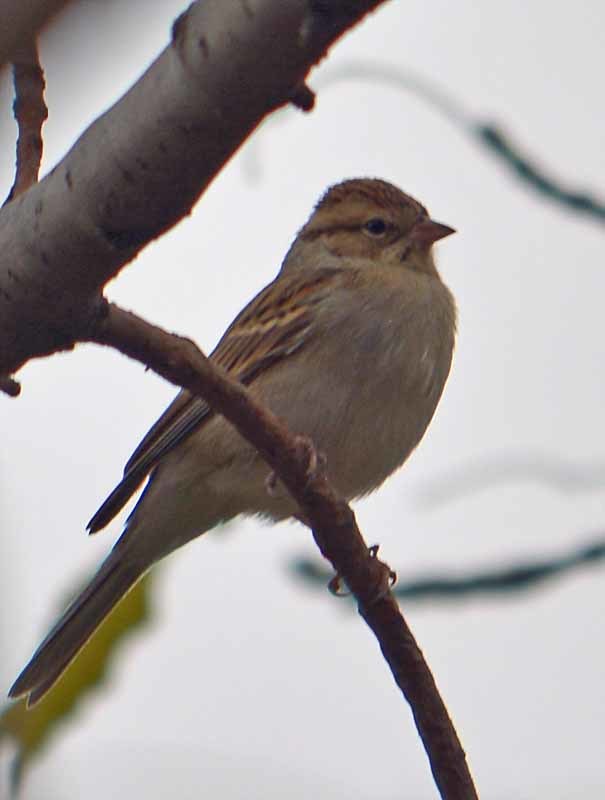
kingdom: Animalia
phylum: Chordata
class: Aves
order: Passeriformes
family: Passerellidae
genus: Spizella
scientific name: Spizella pallida
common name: Clay-colored sparrow
